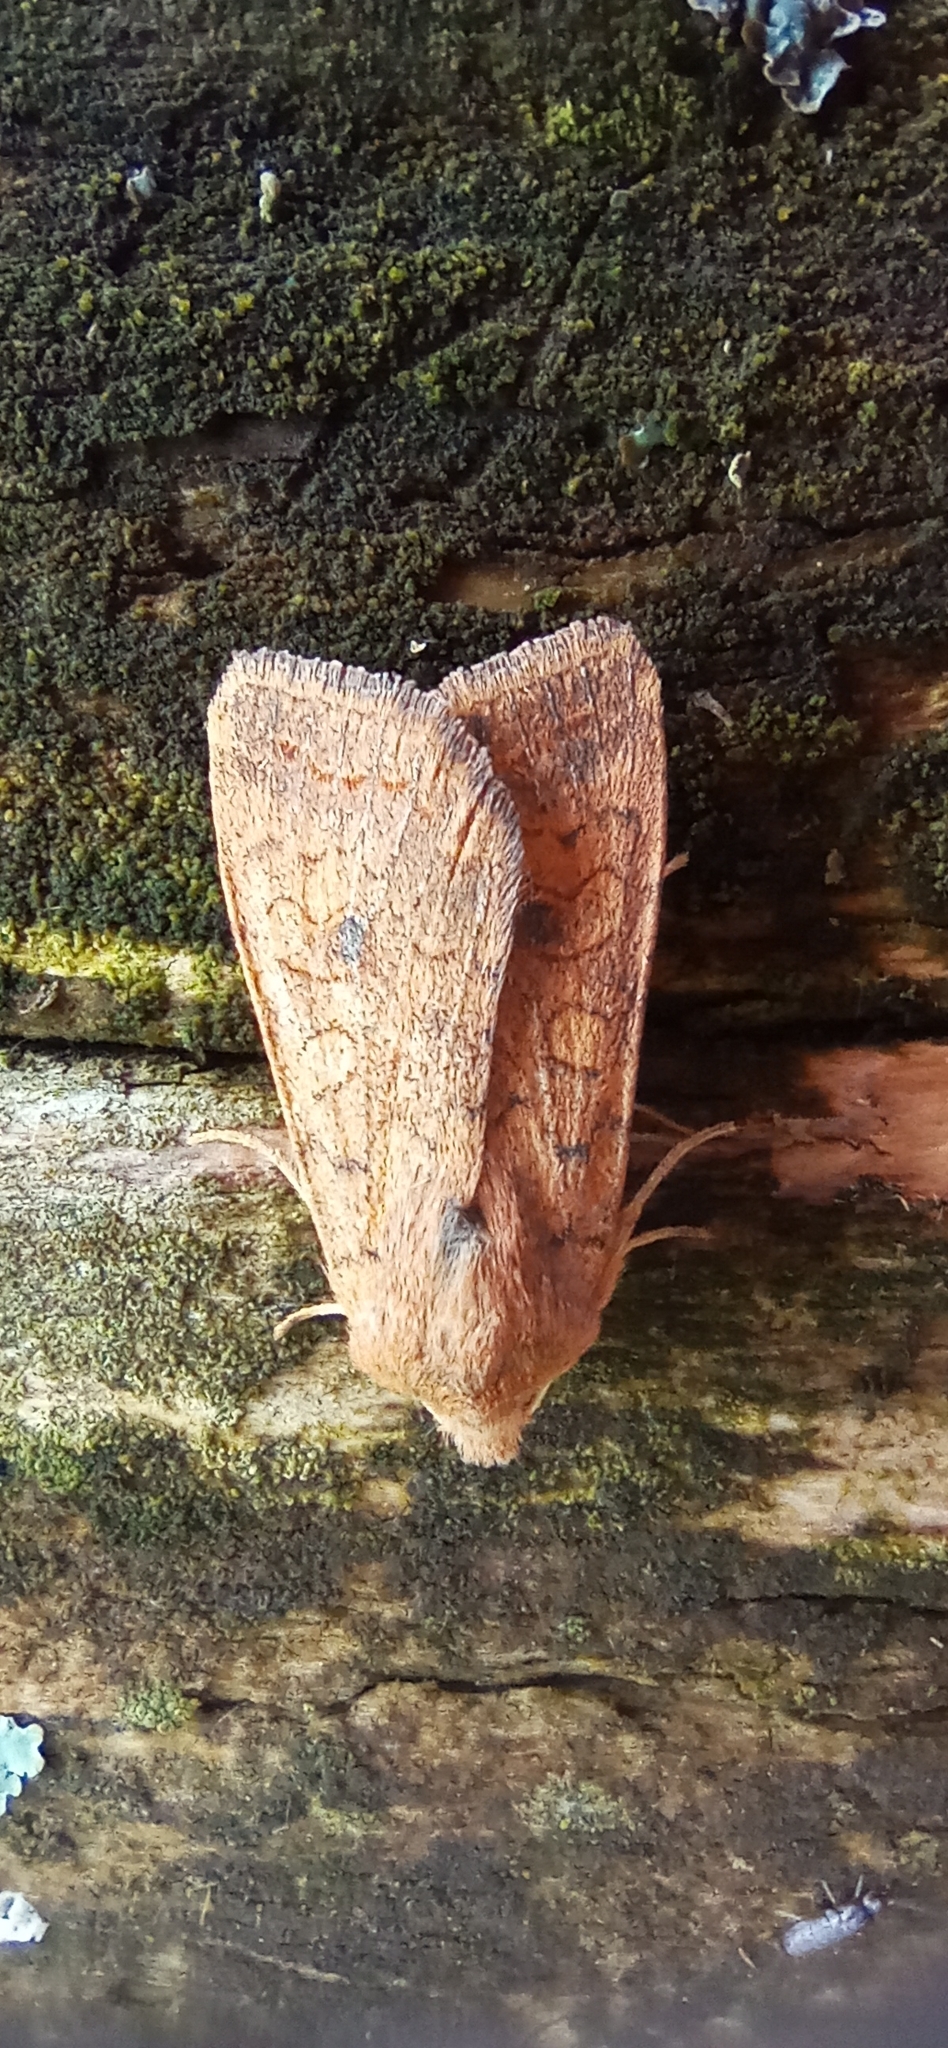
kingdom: Animalia
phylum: Arthropoda
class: Insecta
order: Lepidoptera
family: Noctuidae
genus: Sunira
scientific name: Sunira circellaris
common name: Brick
